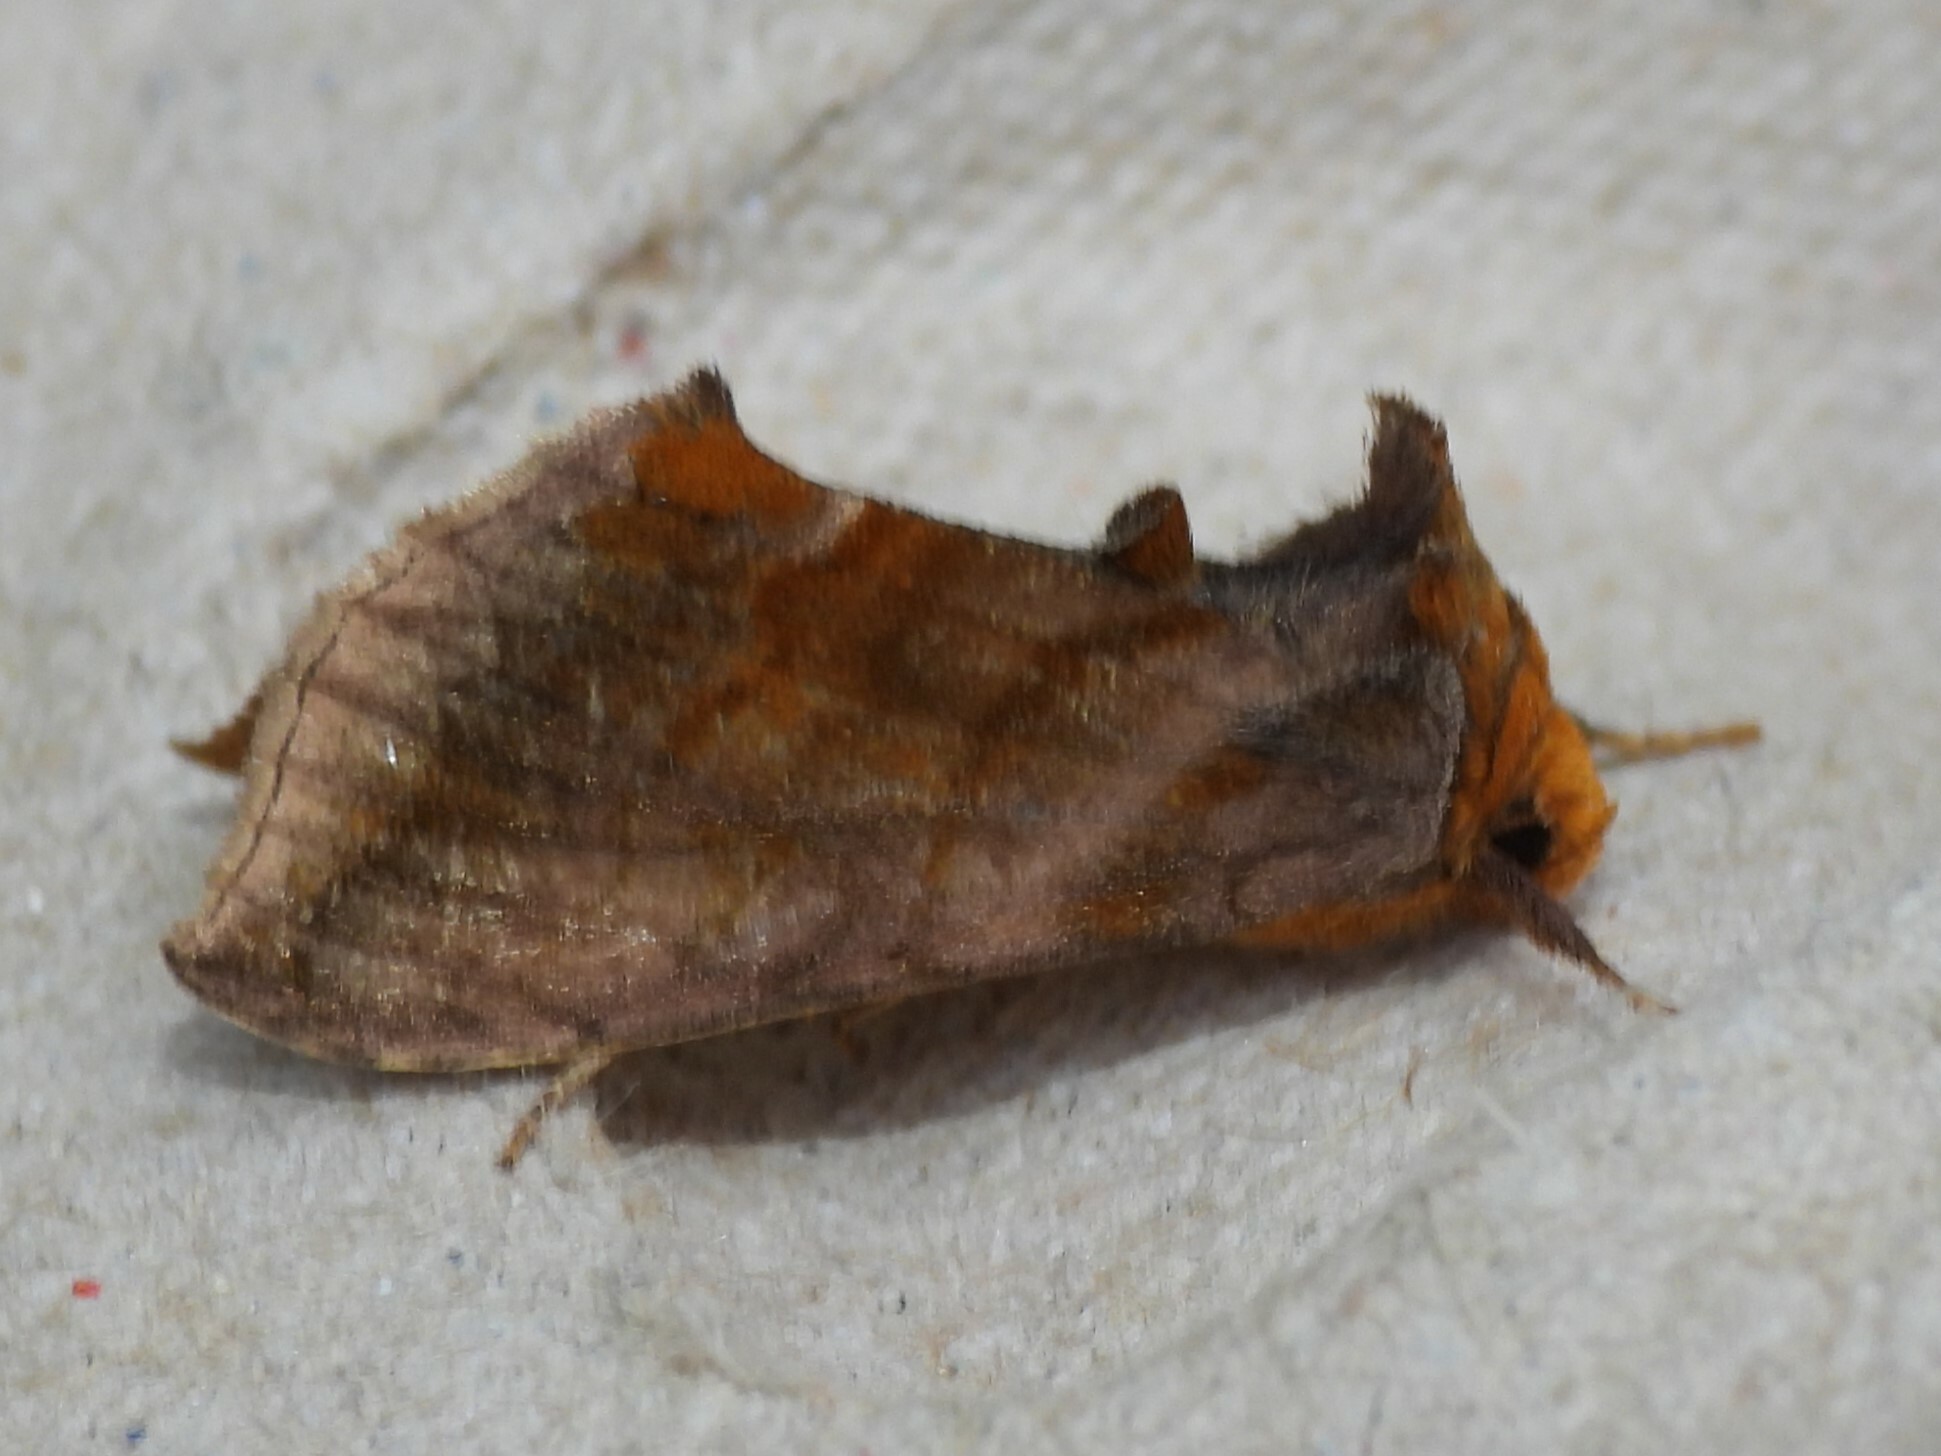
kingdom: Animalia
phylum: Arthropoda
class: Insecta
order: Lepidoptera
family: Noctuidae
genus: Allagrapha
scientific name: Allagrapha aerea
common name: Unspotted looper moth
